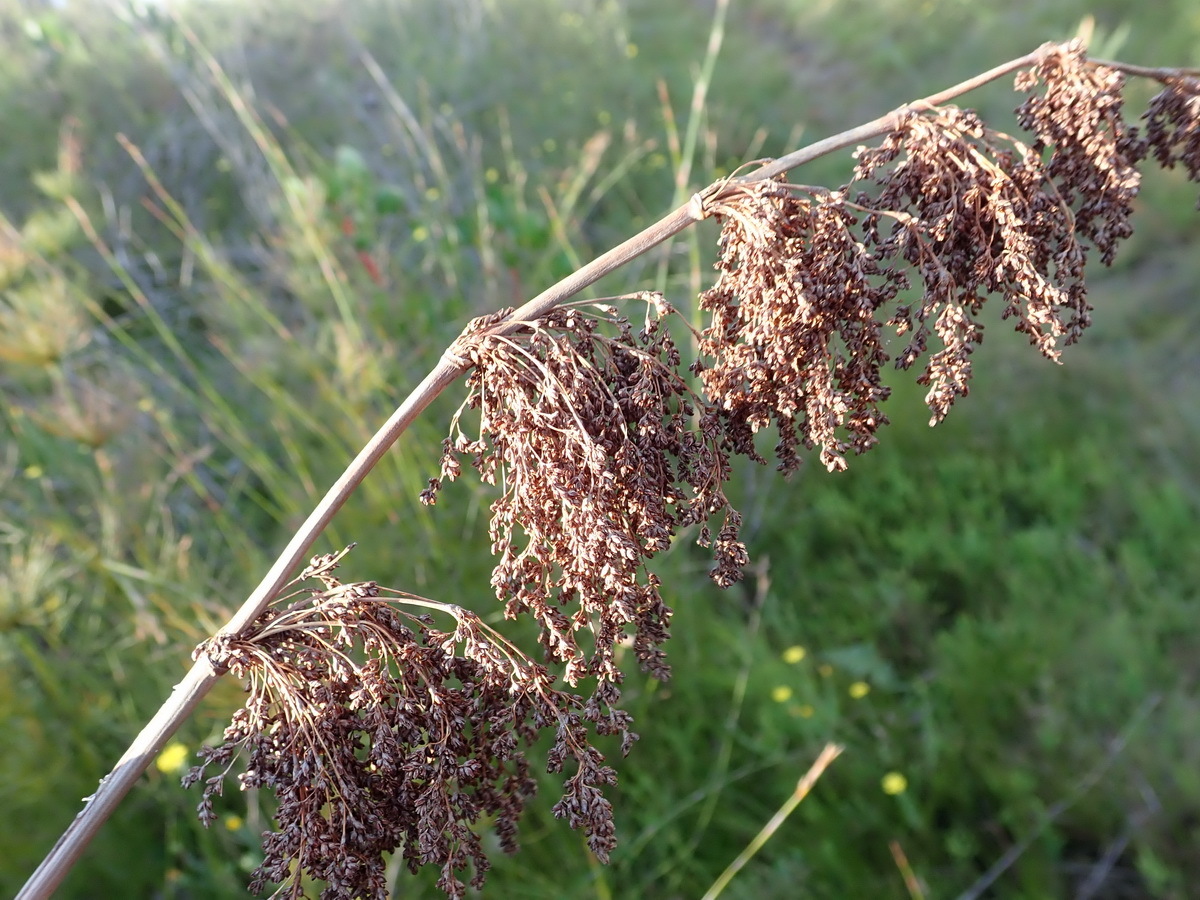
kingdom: Plantae
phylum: Tracheophyta
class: Liliopsida
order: Poales
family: Restionaceae
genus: Elegia
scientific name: Elegia capensis
